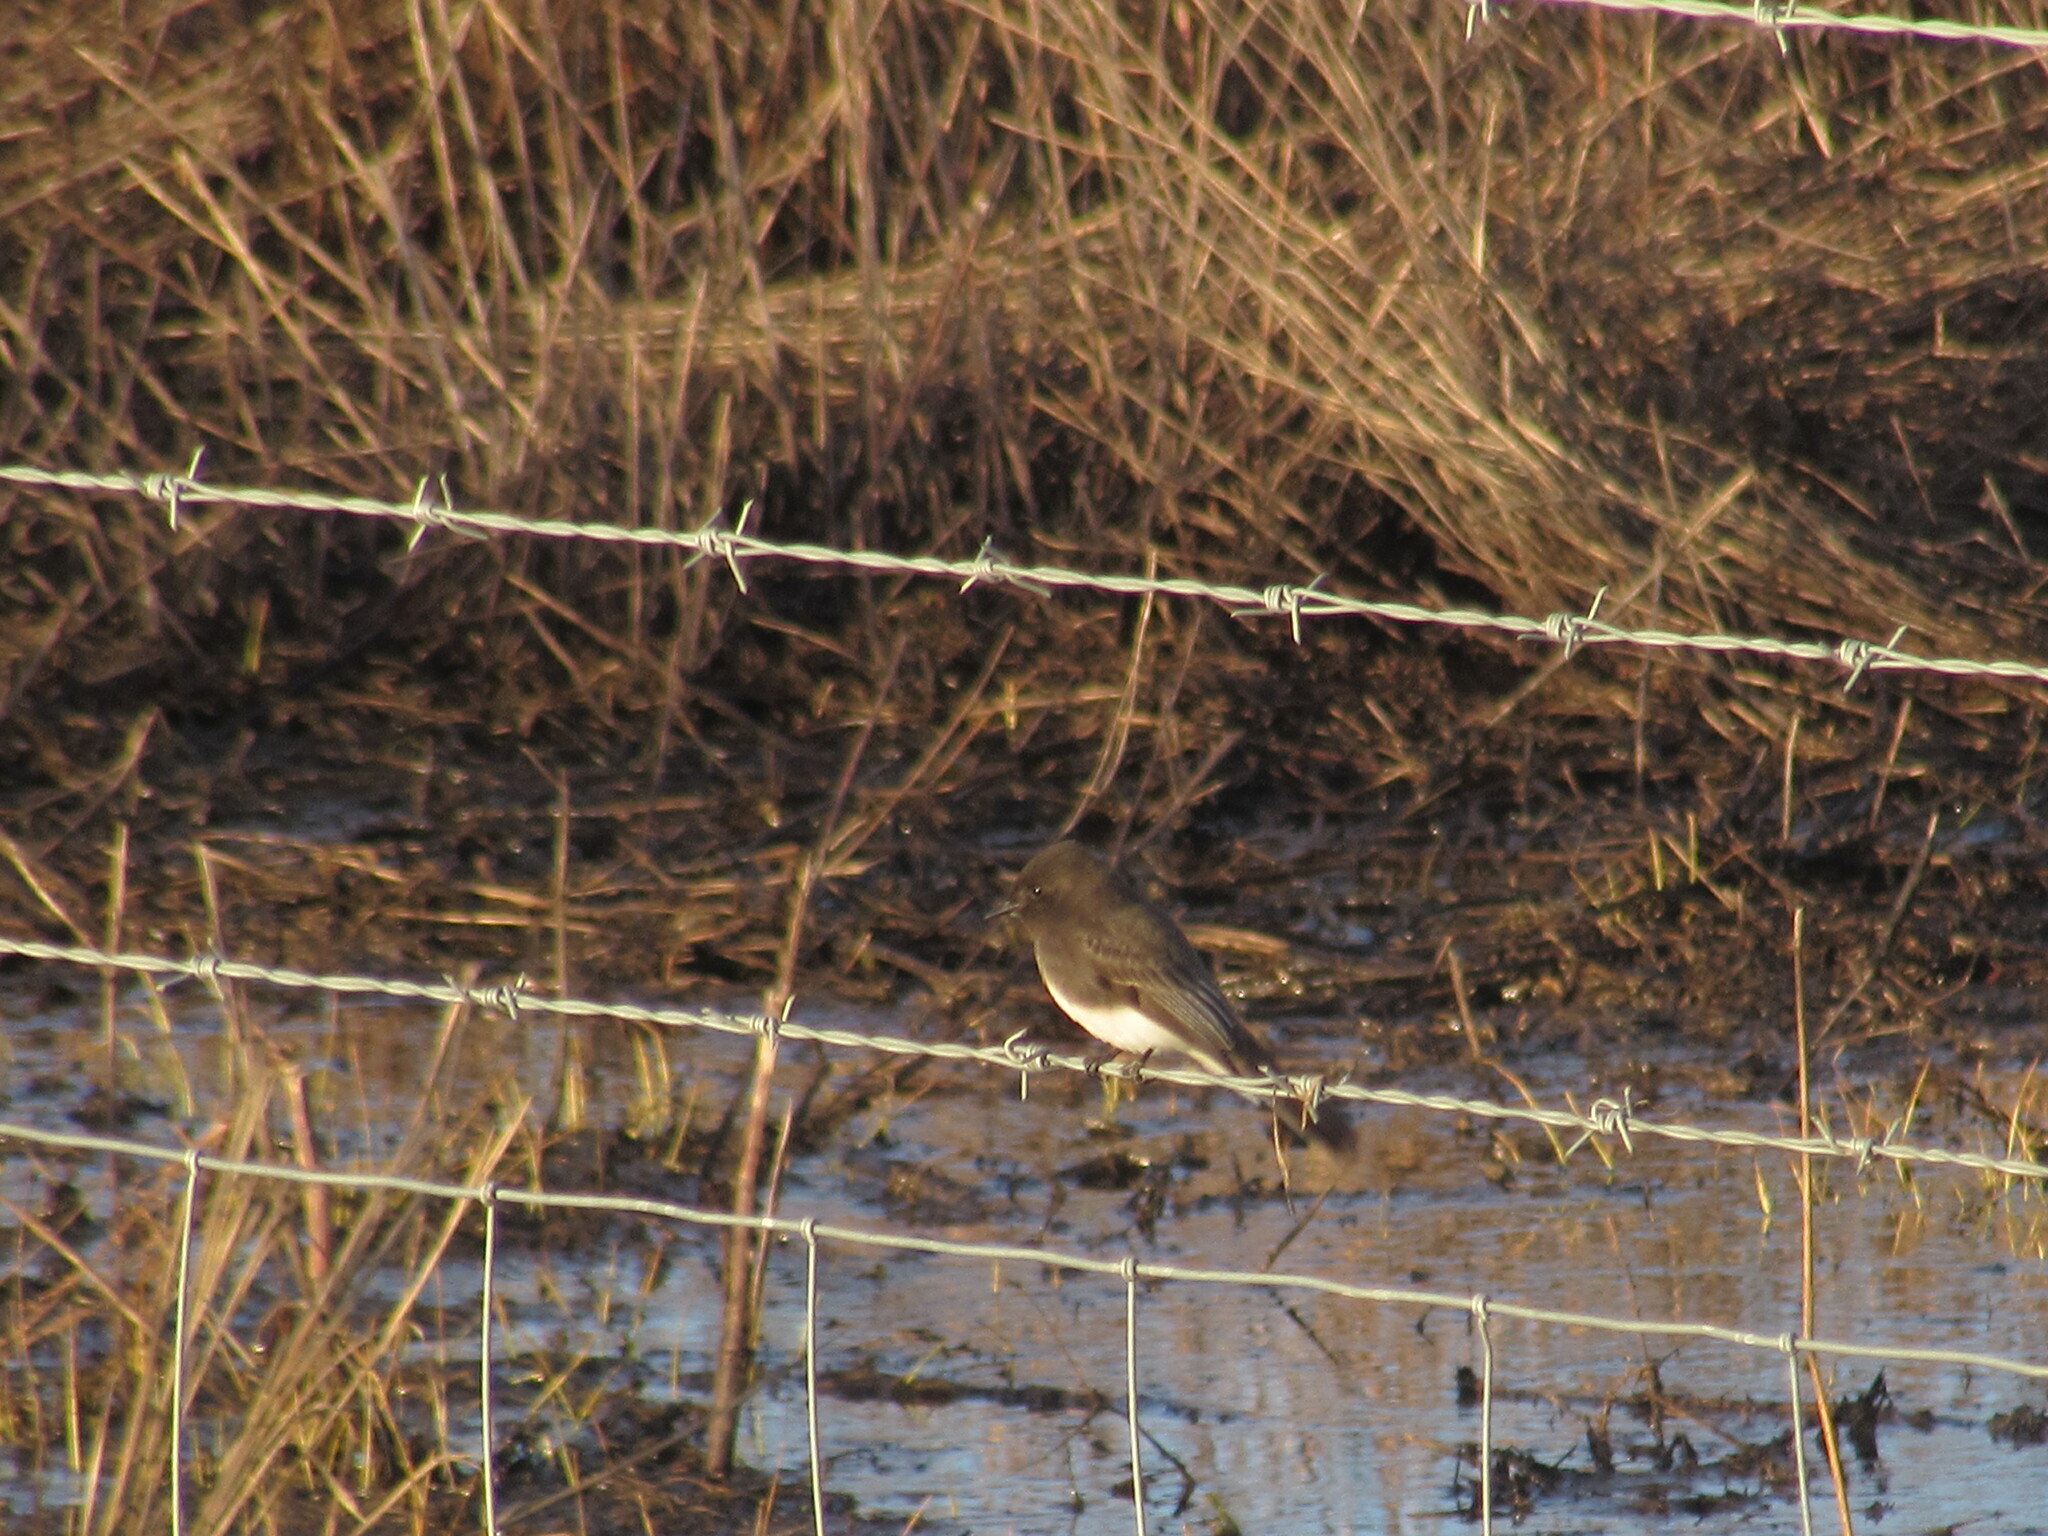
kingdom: Animalia
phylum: Chordata
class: Aves
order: Passeriformes
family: Tyrannidae
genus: Sayornis
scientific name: Sayornis nigricans
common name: Black phoebe
